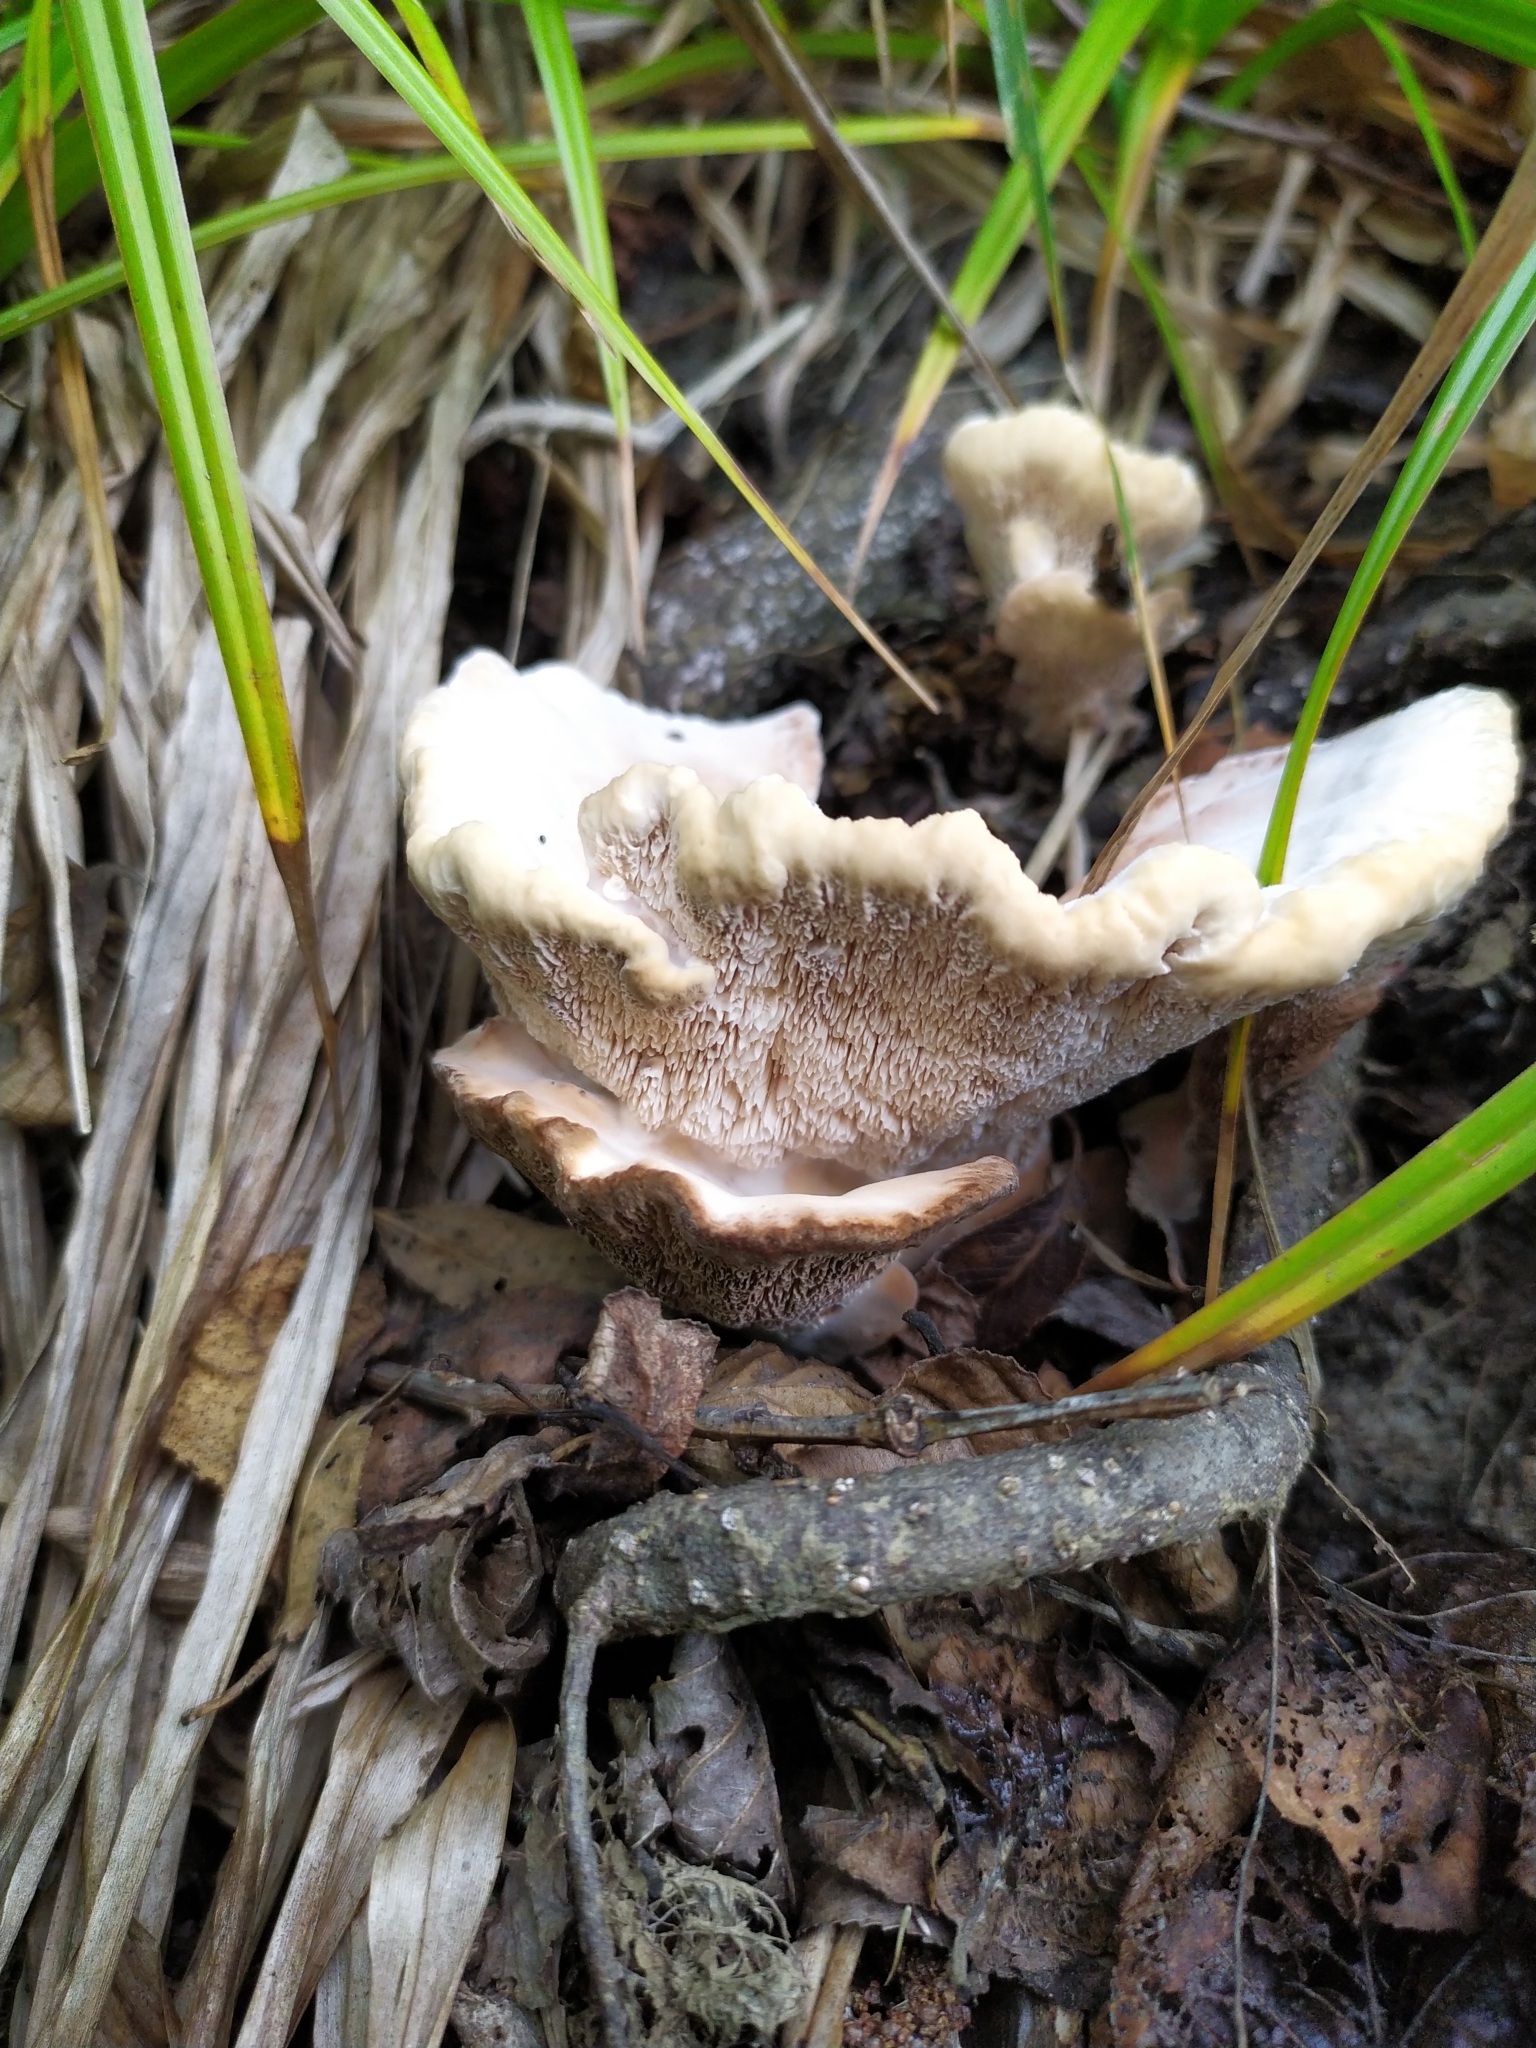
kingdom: Fungi
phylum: Basidiomycota
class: Agaricomycetes
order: Polyporales
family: Irpicaceae
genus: Trametopsis
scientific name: Trametopsis cervina
